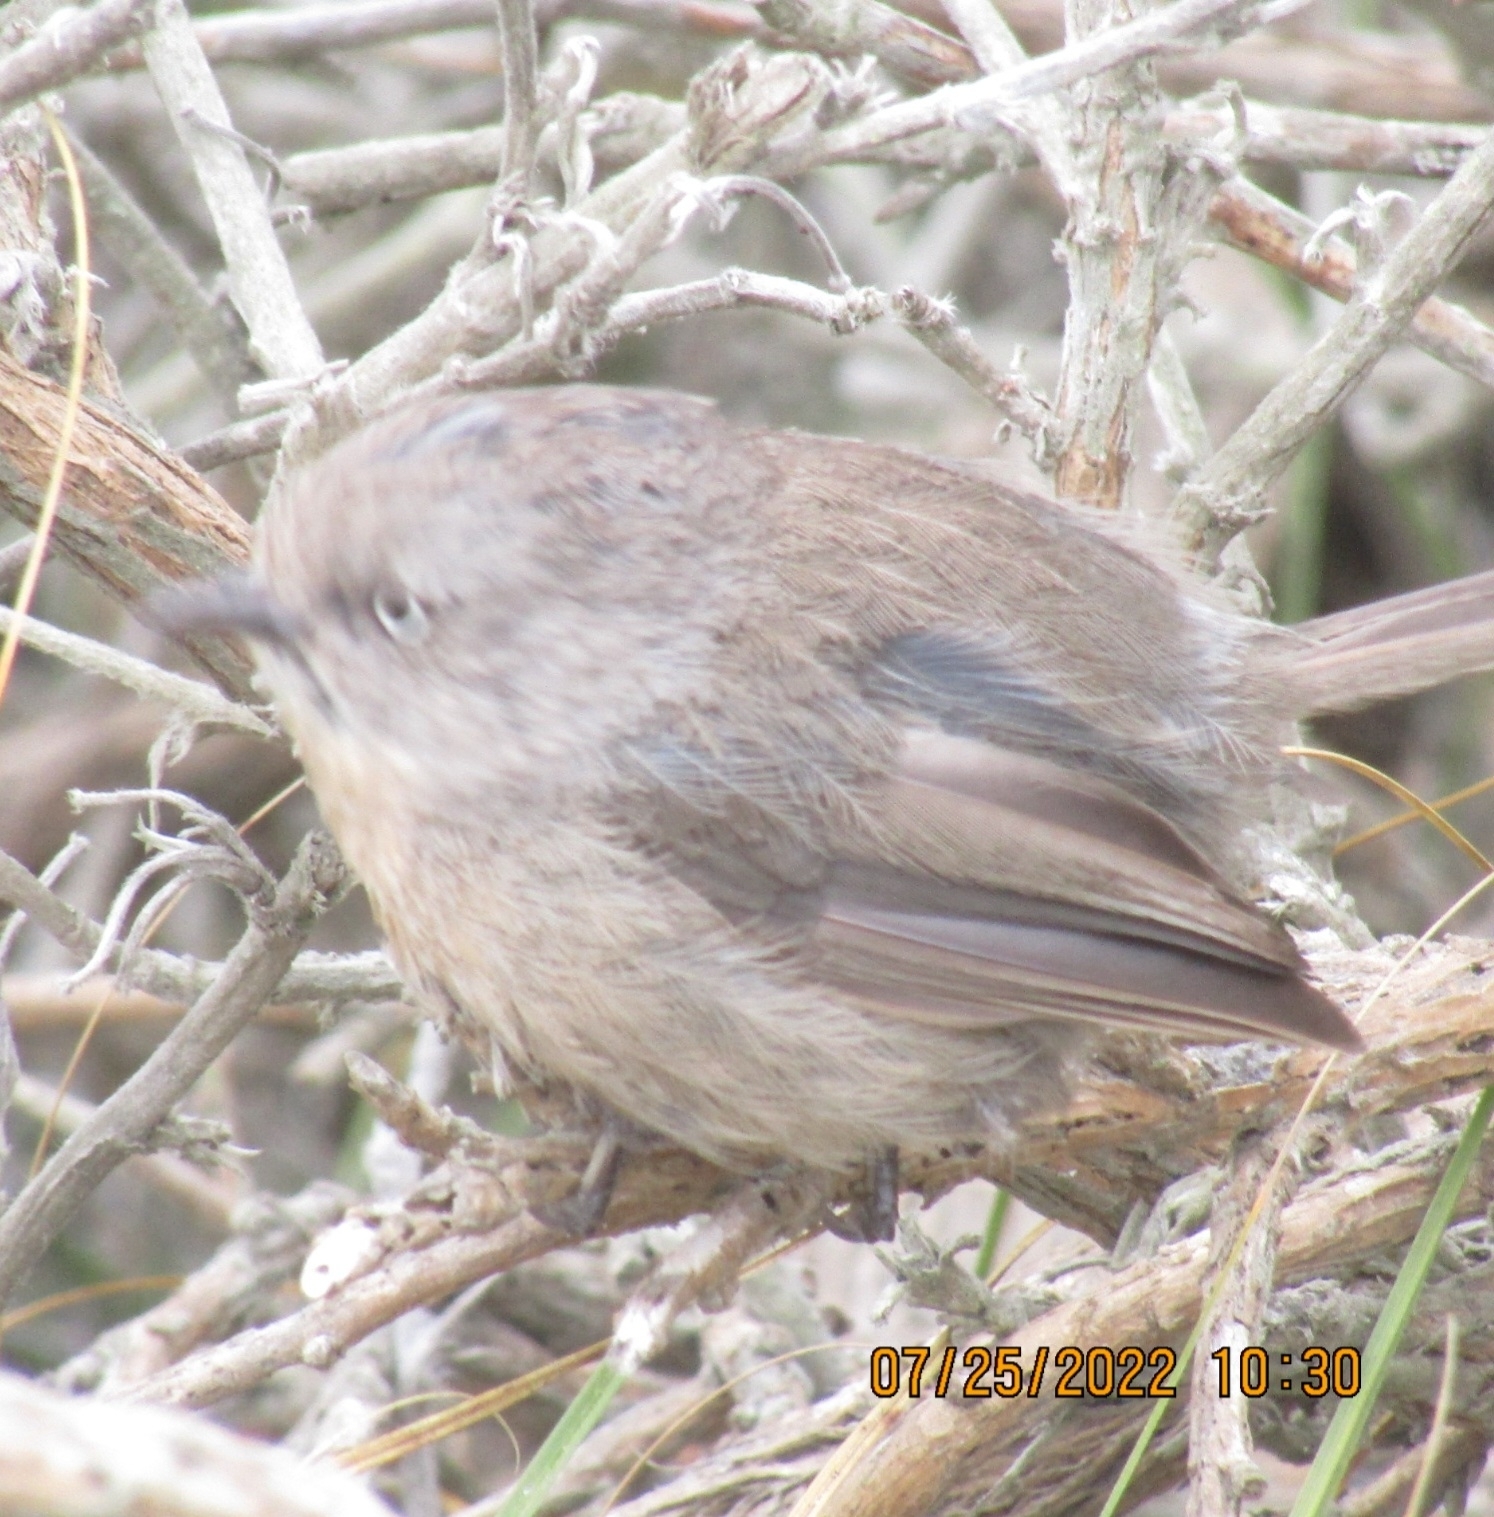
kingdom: Animalia
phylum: Chordata
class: Aves
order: Passeriformes
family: Sylviidae
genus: Chamaea
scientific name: Chamaea fasciata
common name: Wrentit
